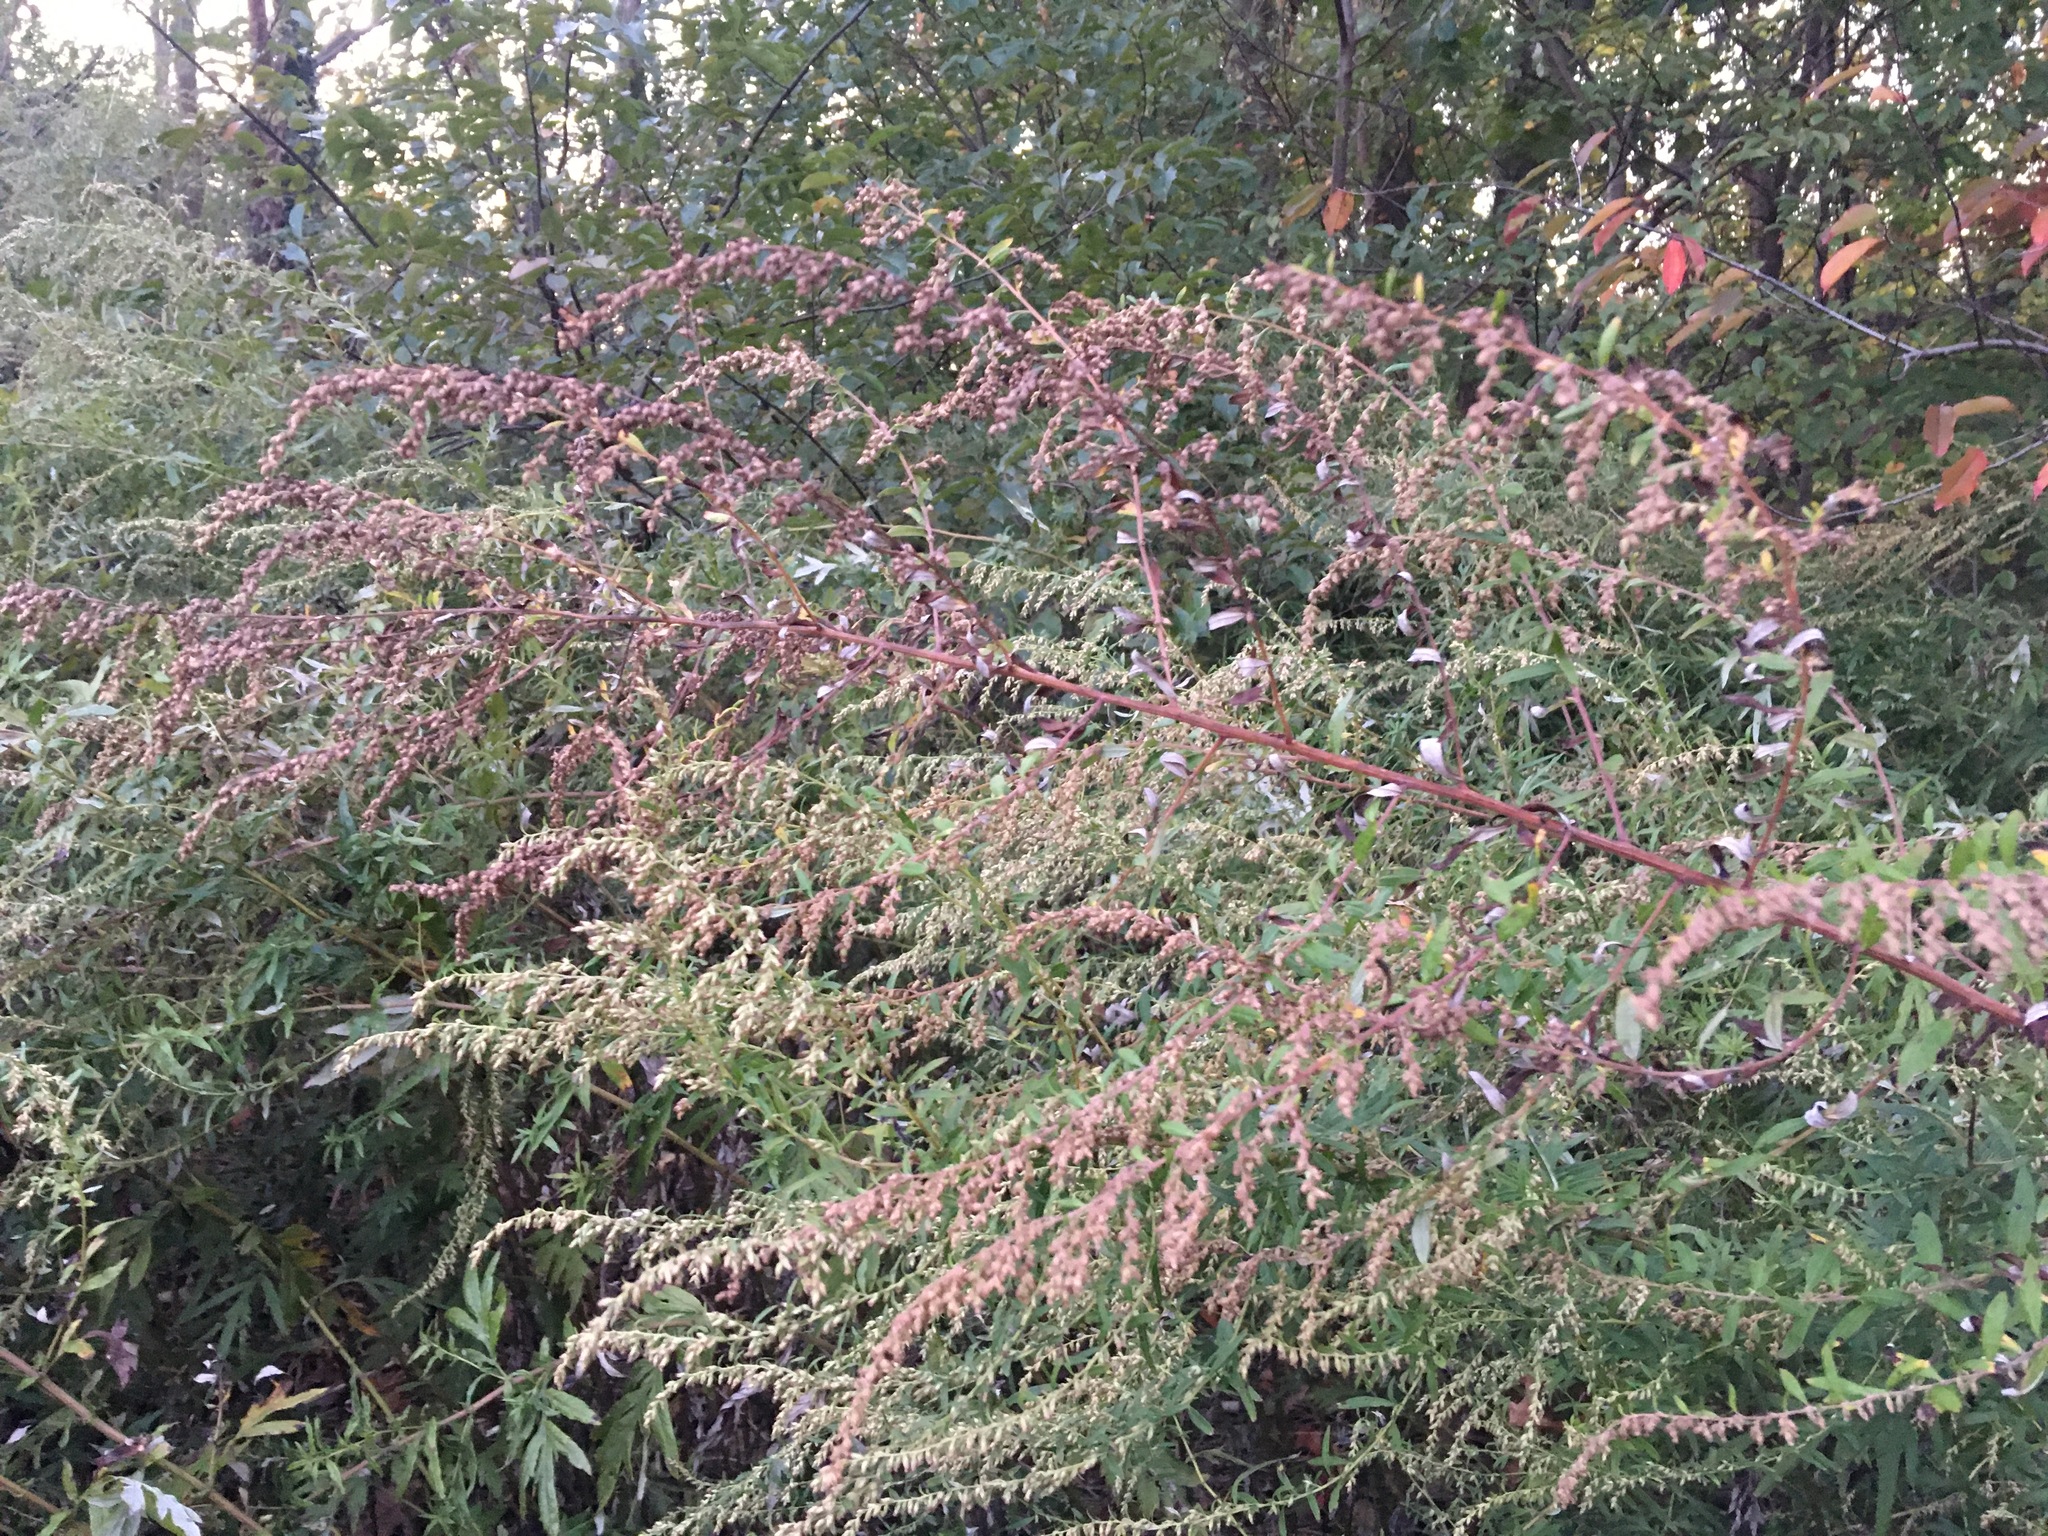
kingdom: Plantae
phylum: Tracheophyta
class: Magnoliopsida
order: Asterales
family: Asteraceae
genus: Artemisia
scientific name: Artemisia vulgaris
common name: Mugwort
